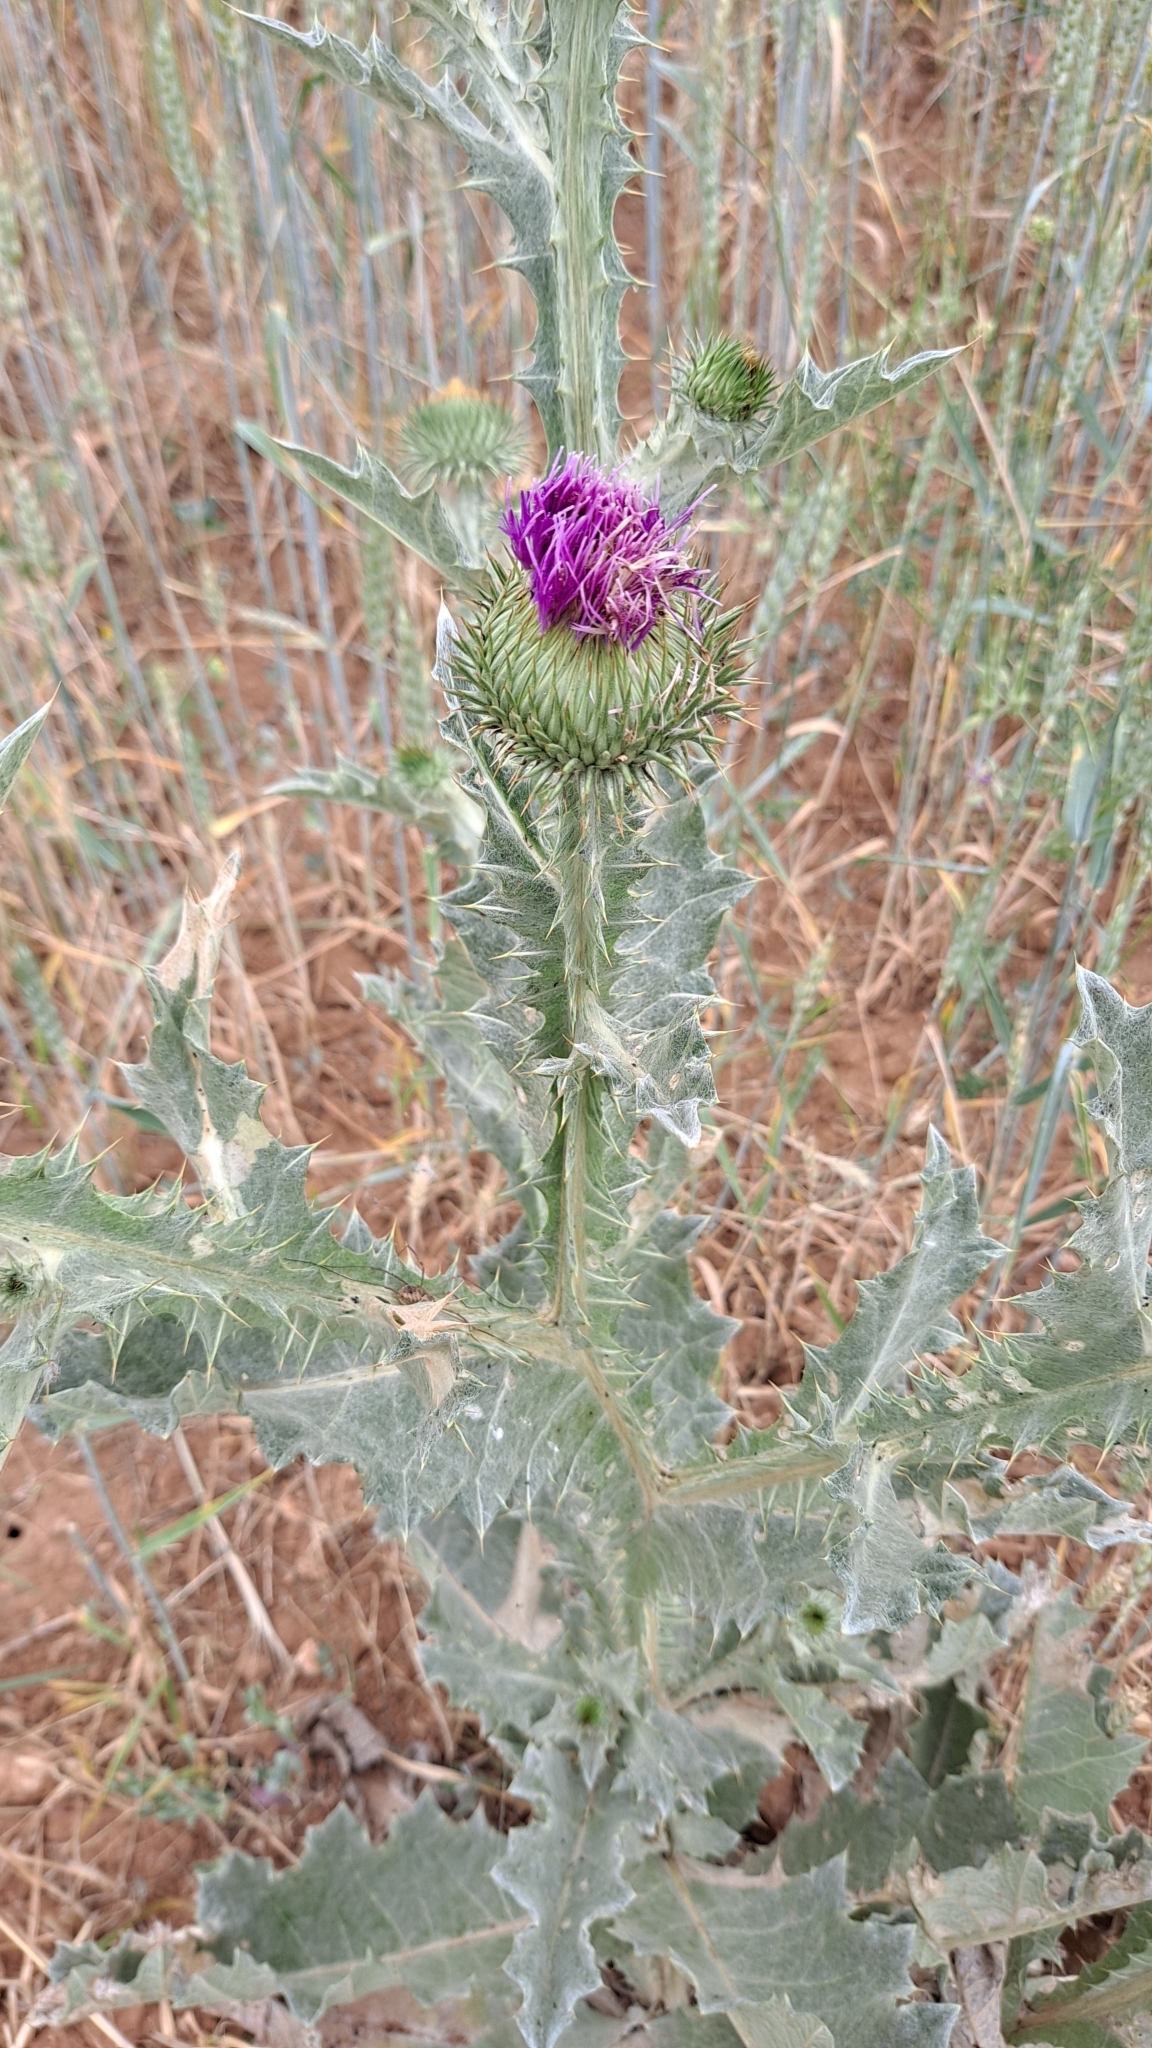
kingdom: Plantae
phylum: Tracheophyta
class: Magnoliopsida
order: Asterales
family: Asteraceae
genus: Onopordum
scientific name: Onopordum acanthium
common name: Scotch thistle
